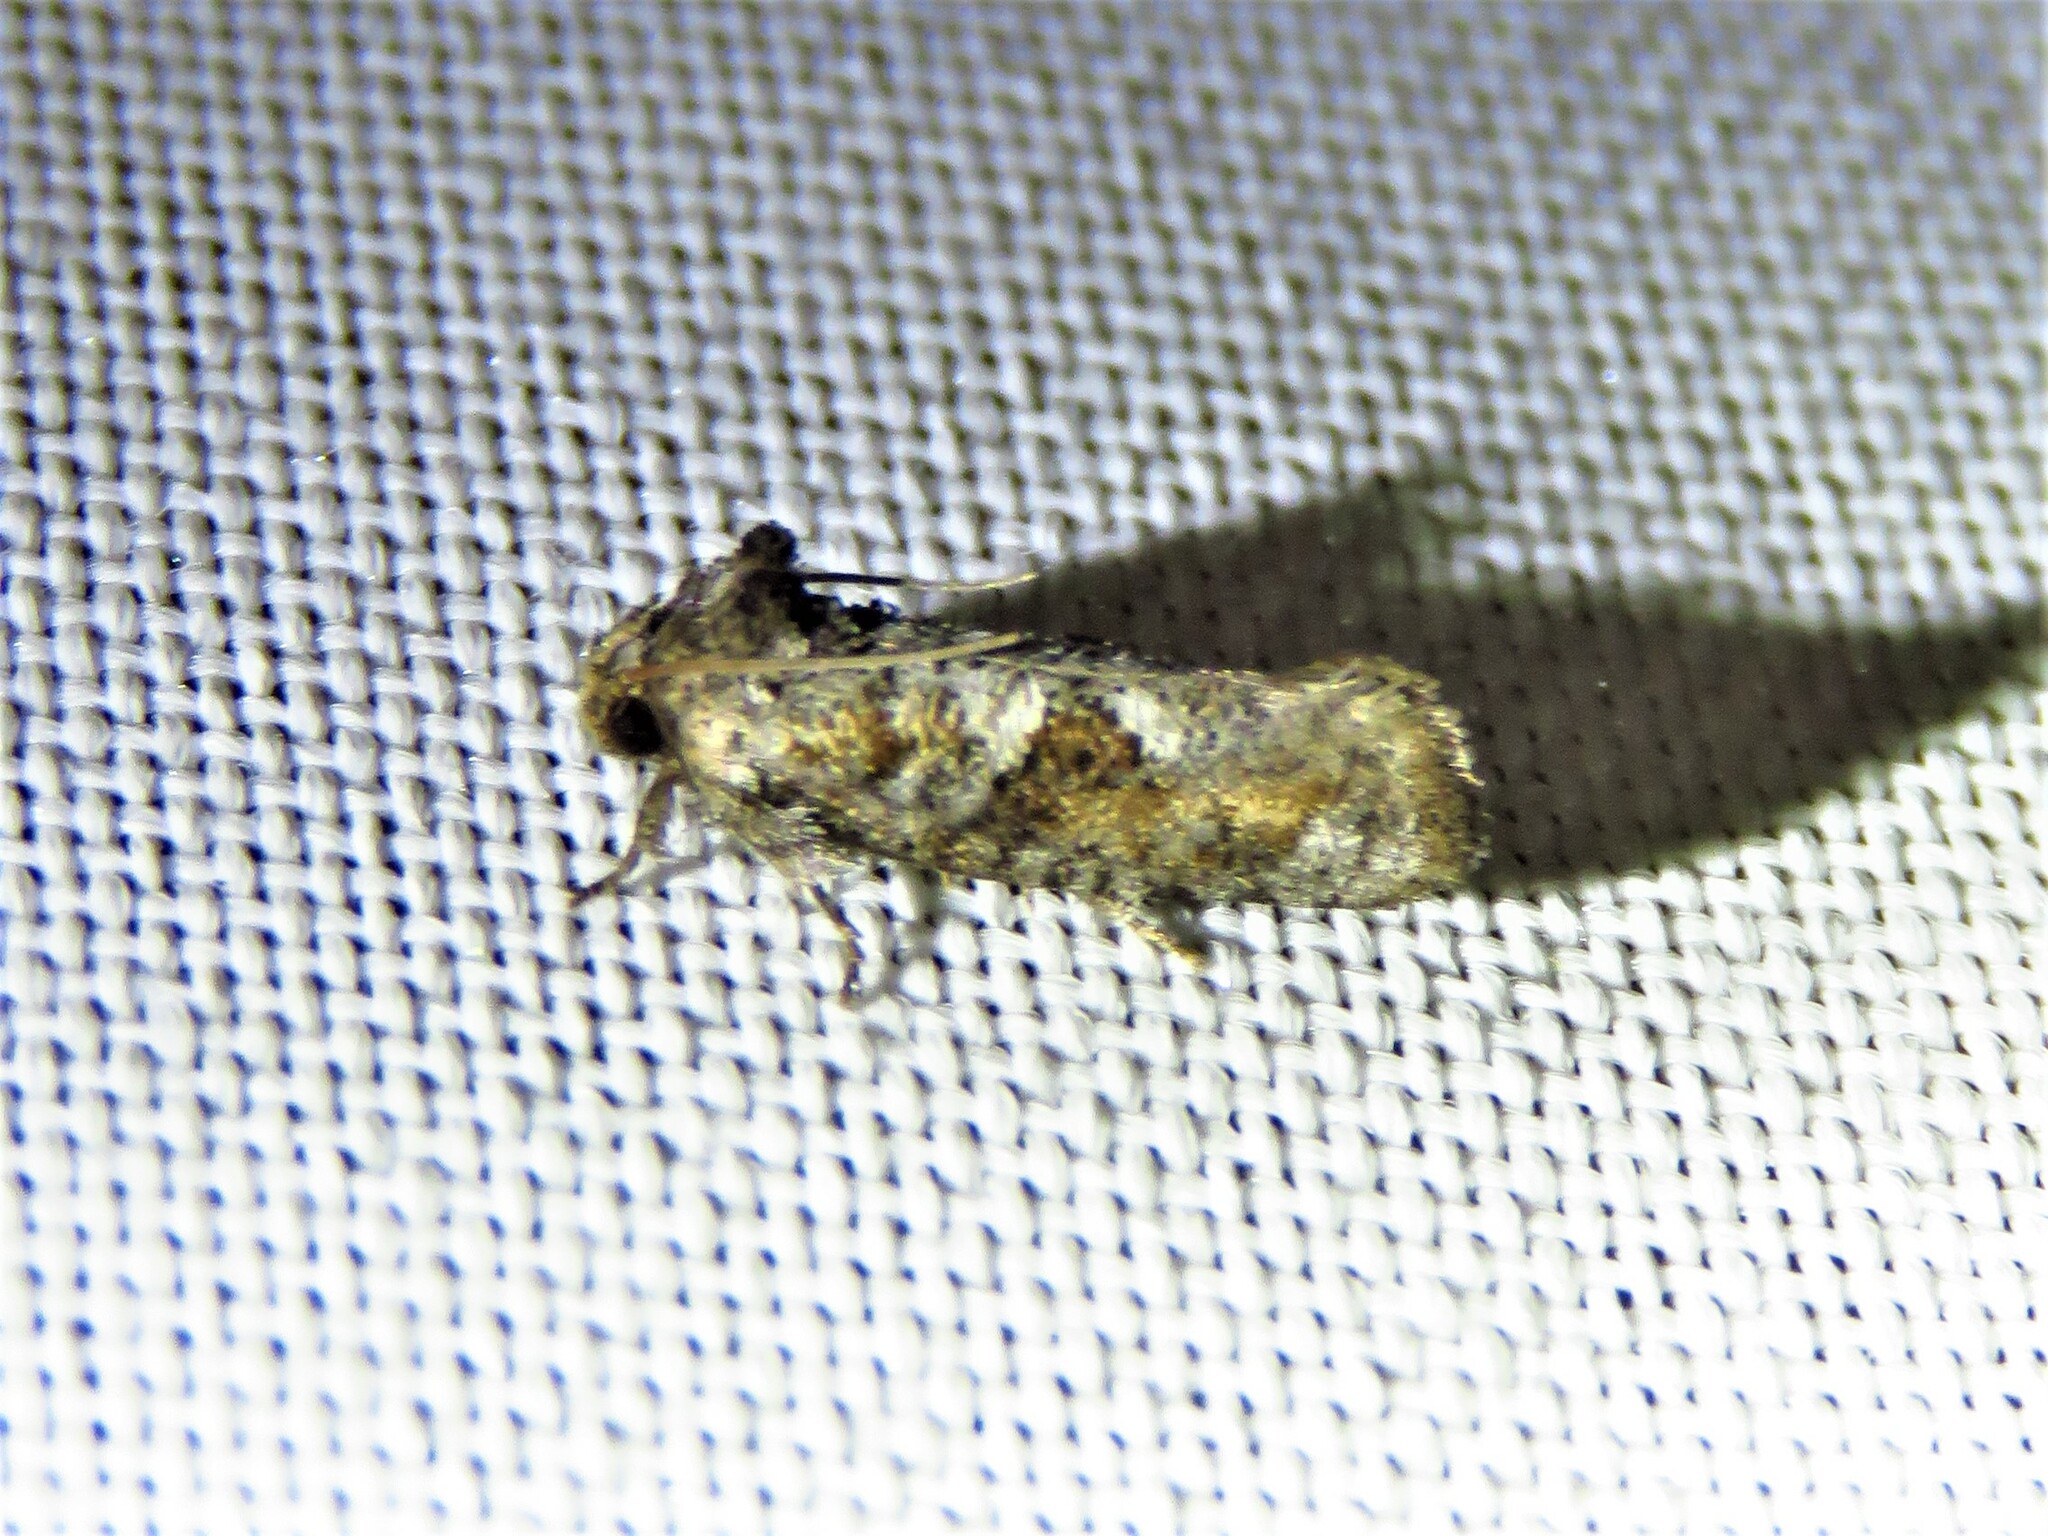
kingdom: Animalia
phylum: Arthropoda
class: Insecta
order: Lepidoptera
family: Tineidae
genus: Acrolophus
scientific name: Acrolophus piger
